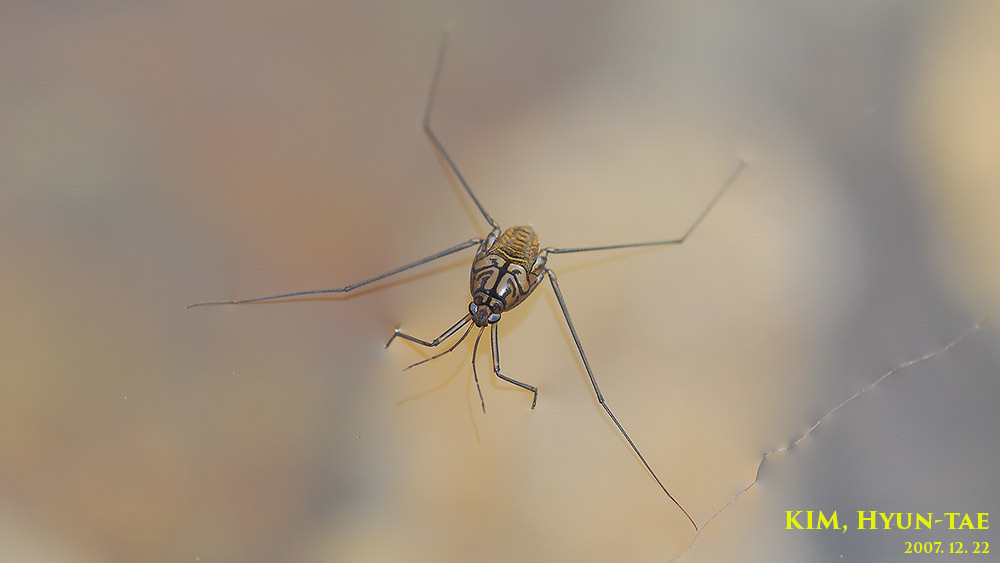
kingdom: Animalia
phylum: Arthropoda
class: Insecta
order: Hemiptera
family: Gerridae
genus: Metrocoris
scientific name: Metrocoris histrio
